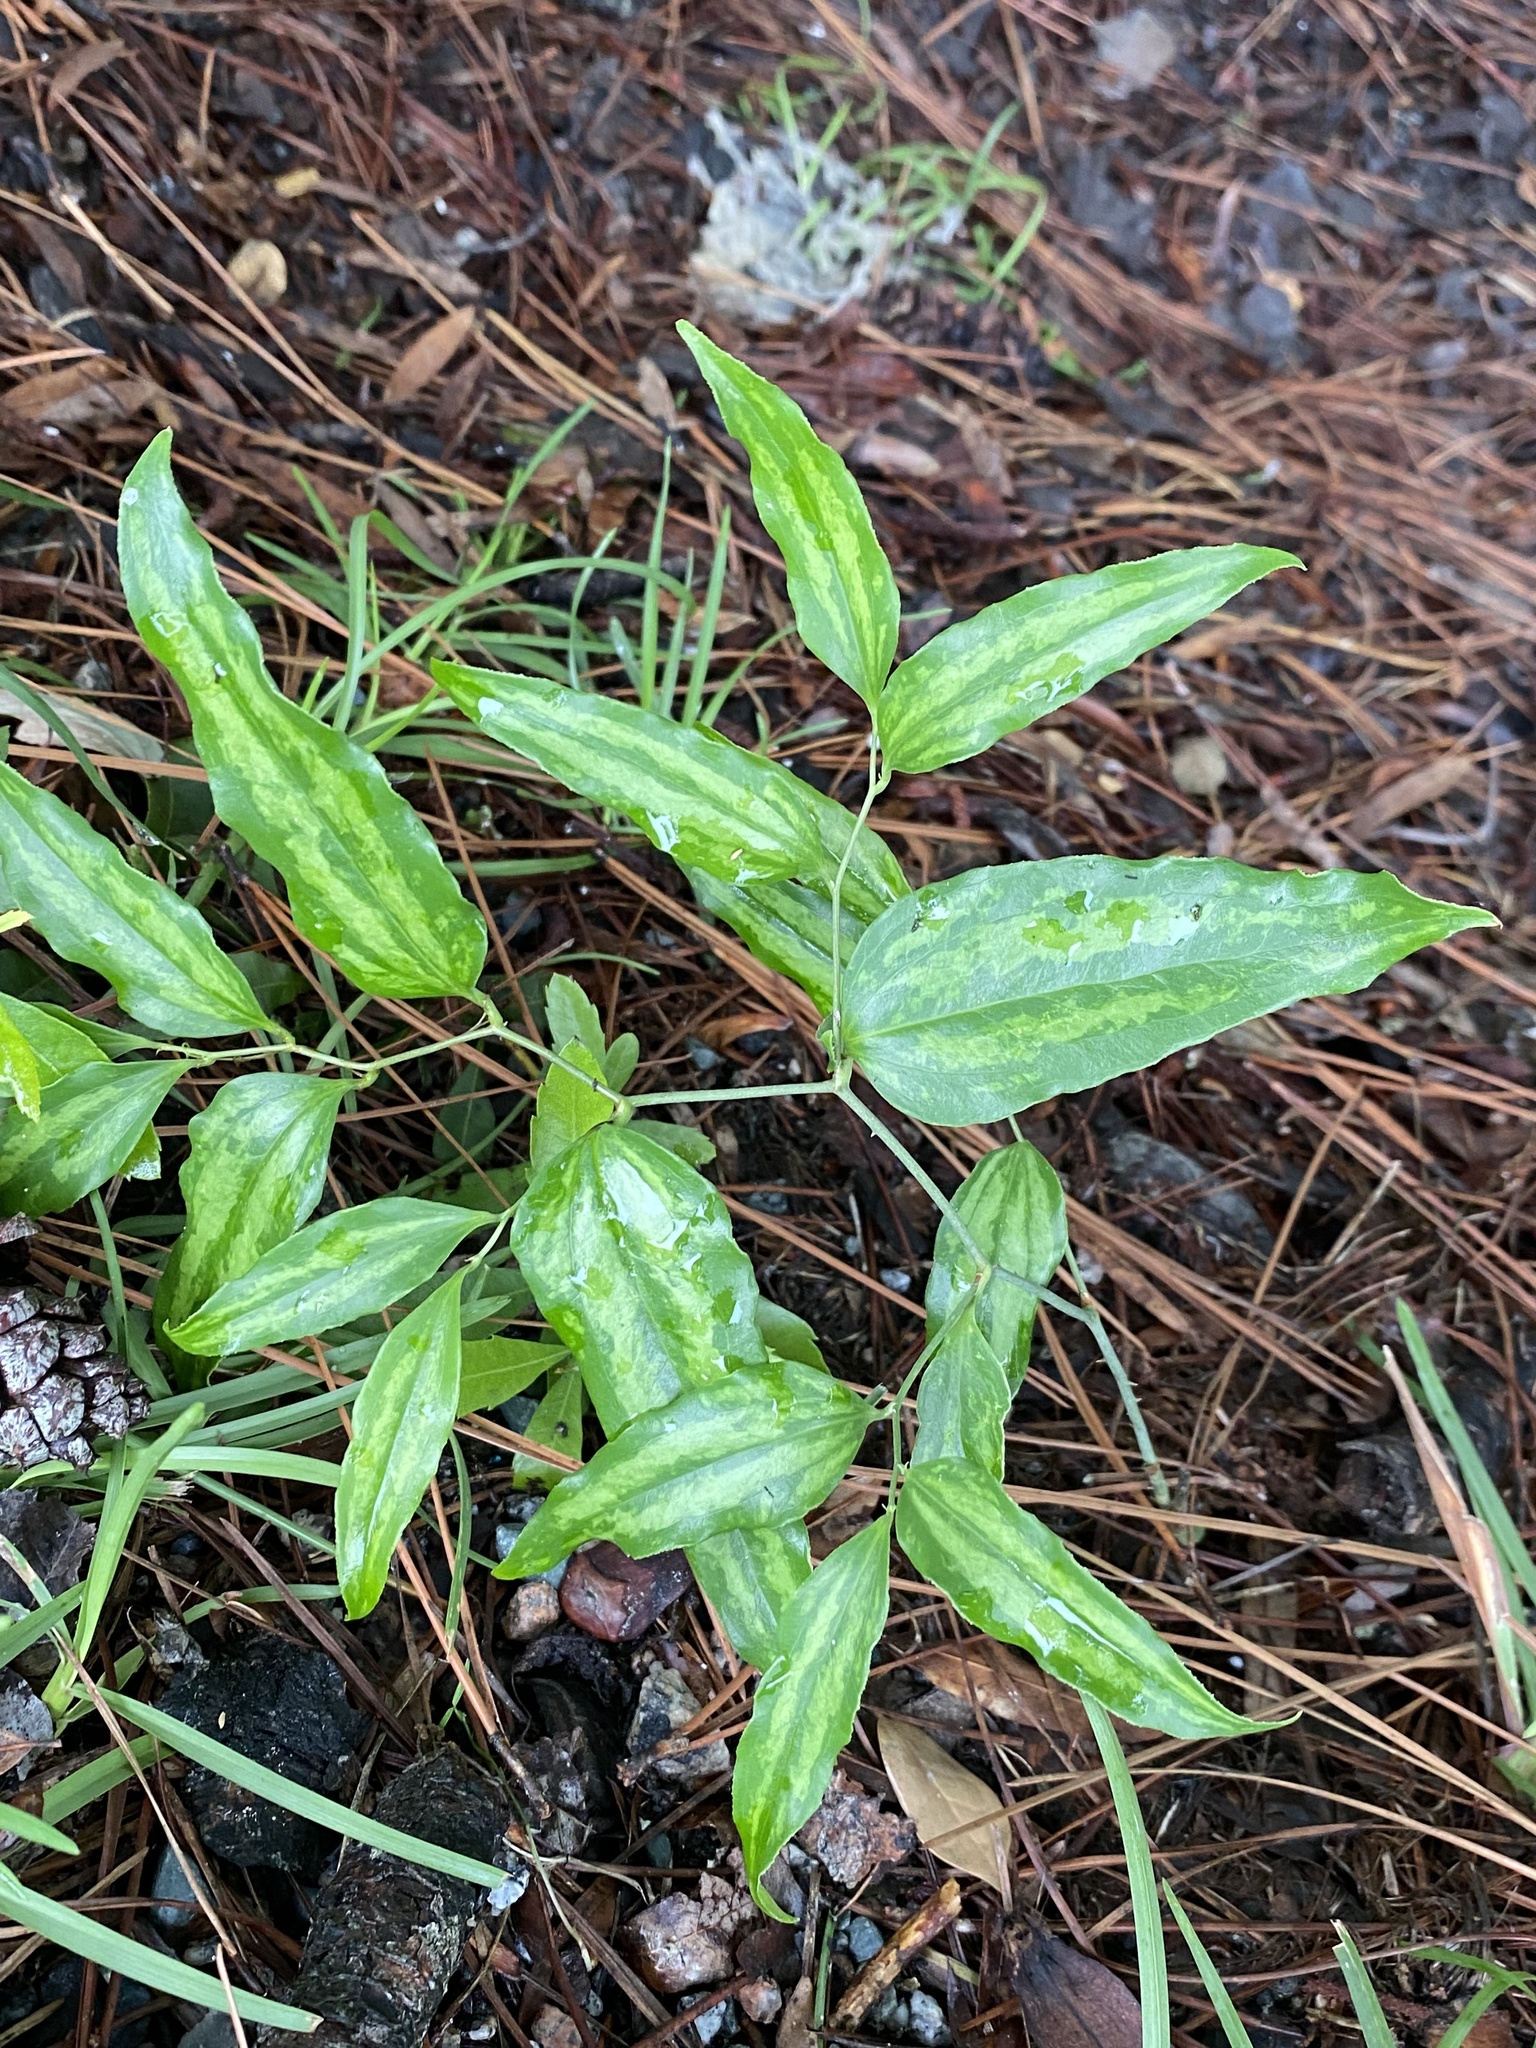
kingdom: Plantae
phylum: Tracheophyta
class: Liliopsida
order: Liliales
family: Smilacaceae
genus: Smilax
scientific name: Smilax maritima
